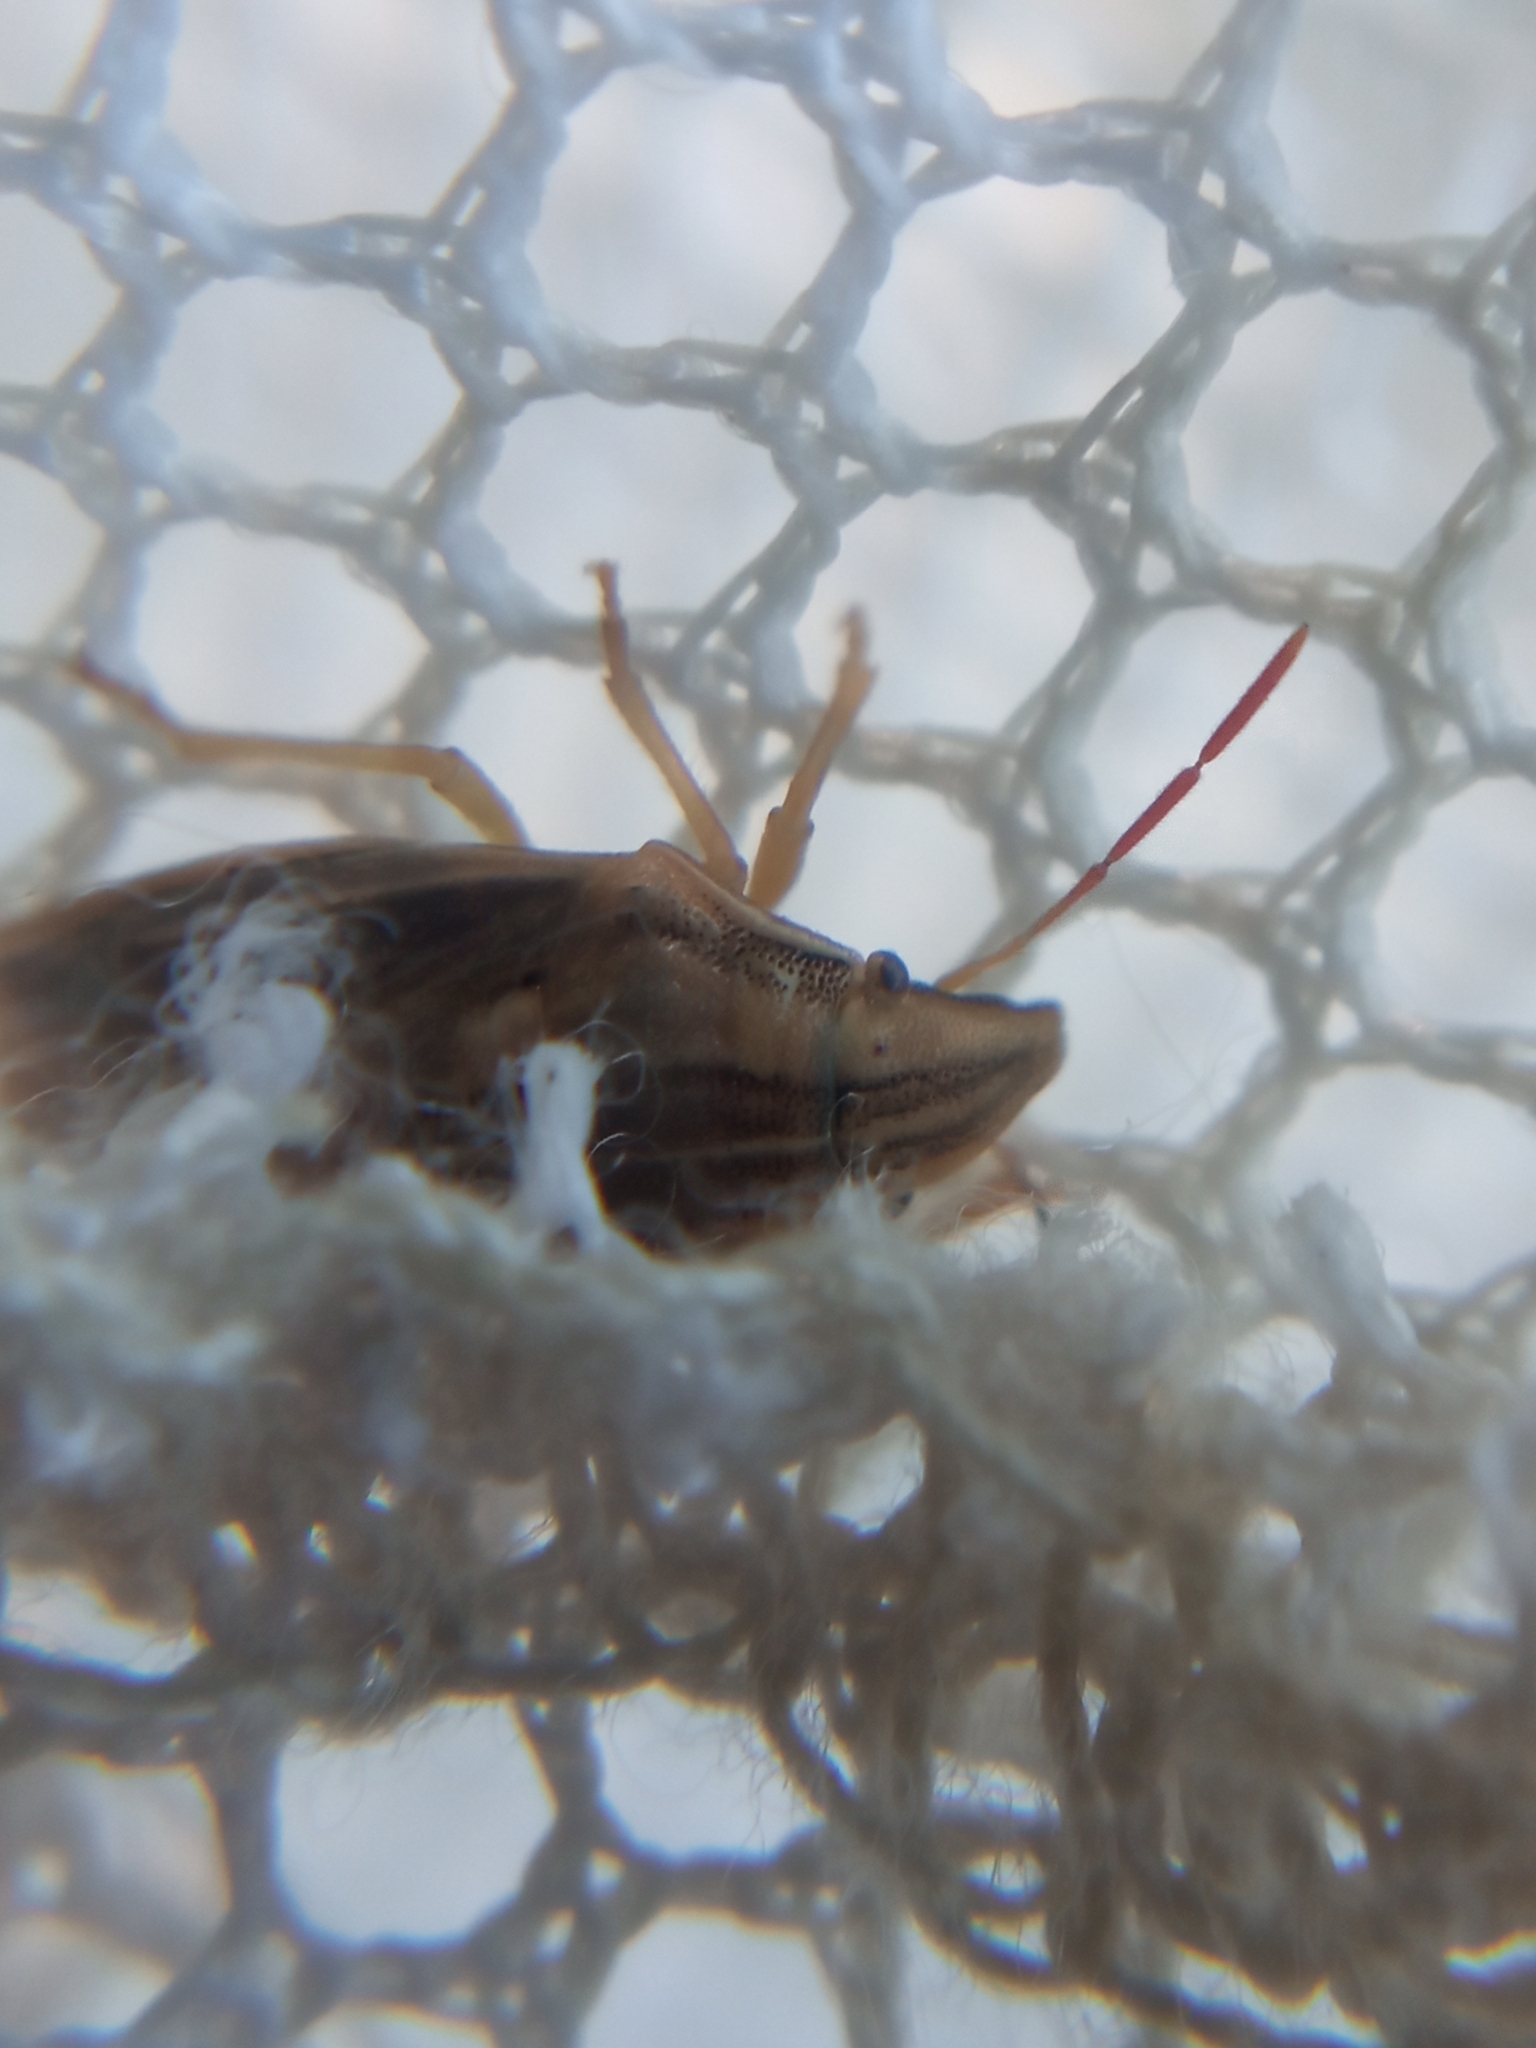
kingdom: Animalia
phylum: Arthropoda
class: Insecta
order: Hemiptera
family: Pentatomidae
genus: Aelia
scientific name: Aelia acuminata
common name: Bishop's mitre
